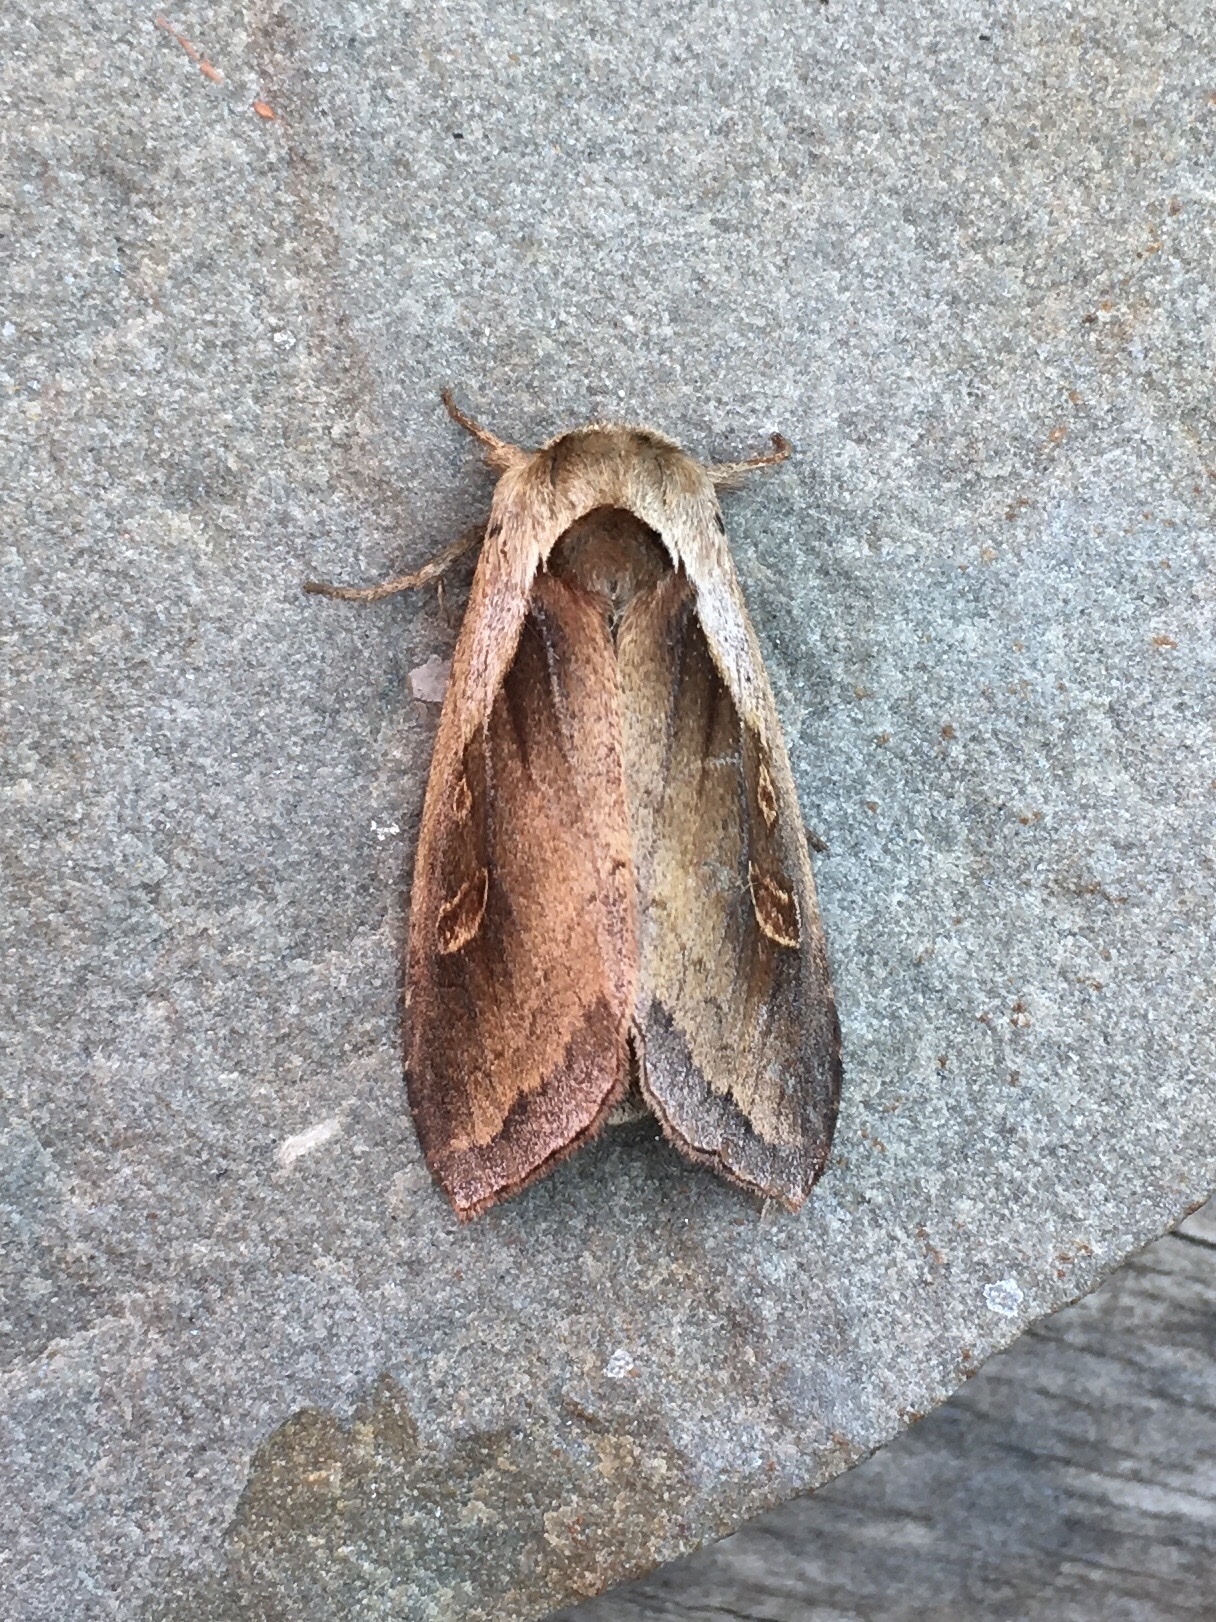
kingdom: Animalia
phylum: Arthropoda
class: Insecta
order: Lepidoptera
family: Noctuidae
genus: Bellura
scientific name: Bellura obliqua
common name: Cattail borer moth
